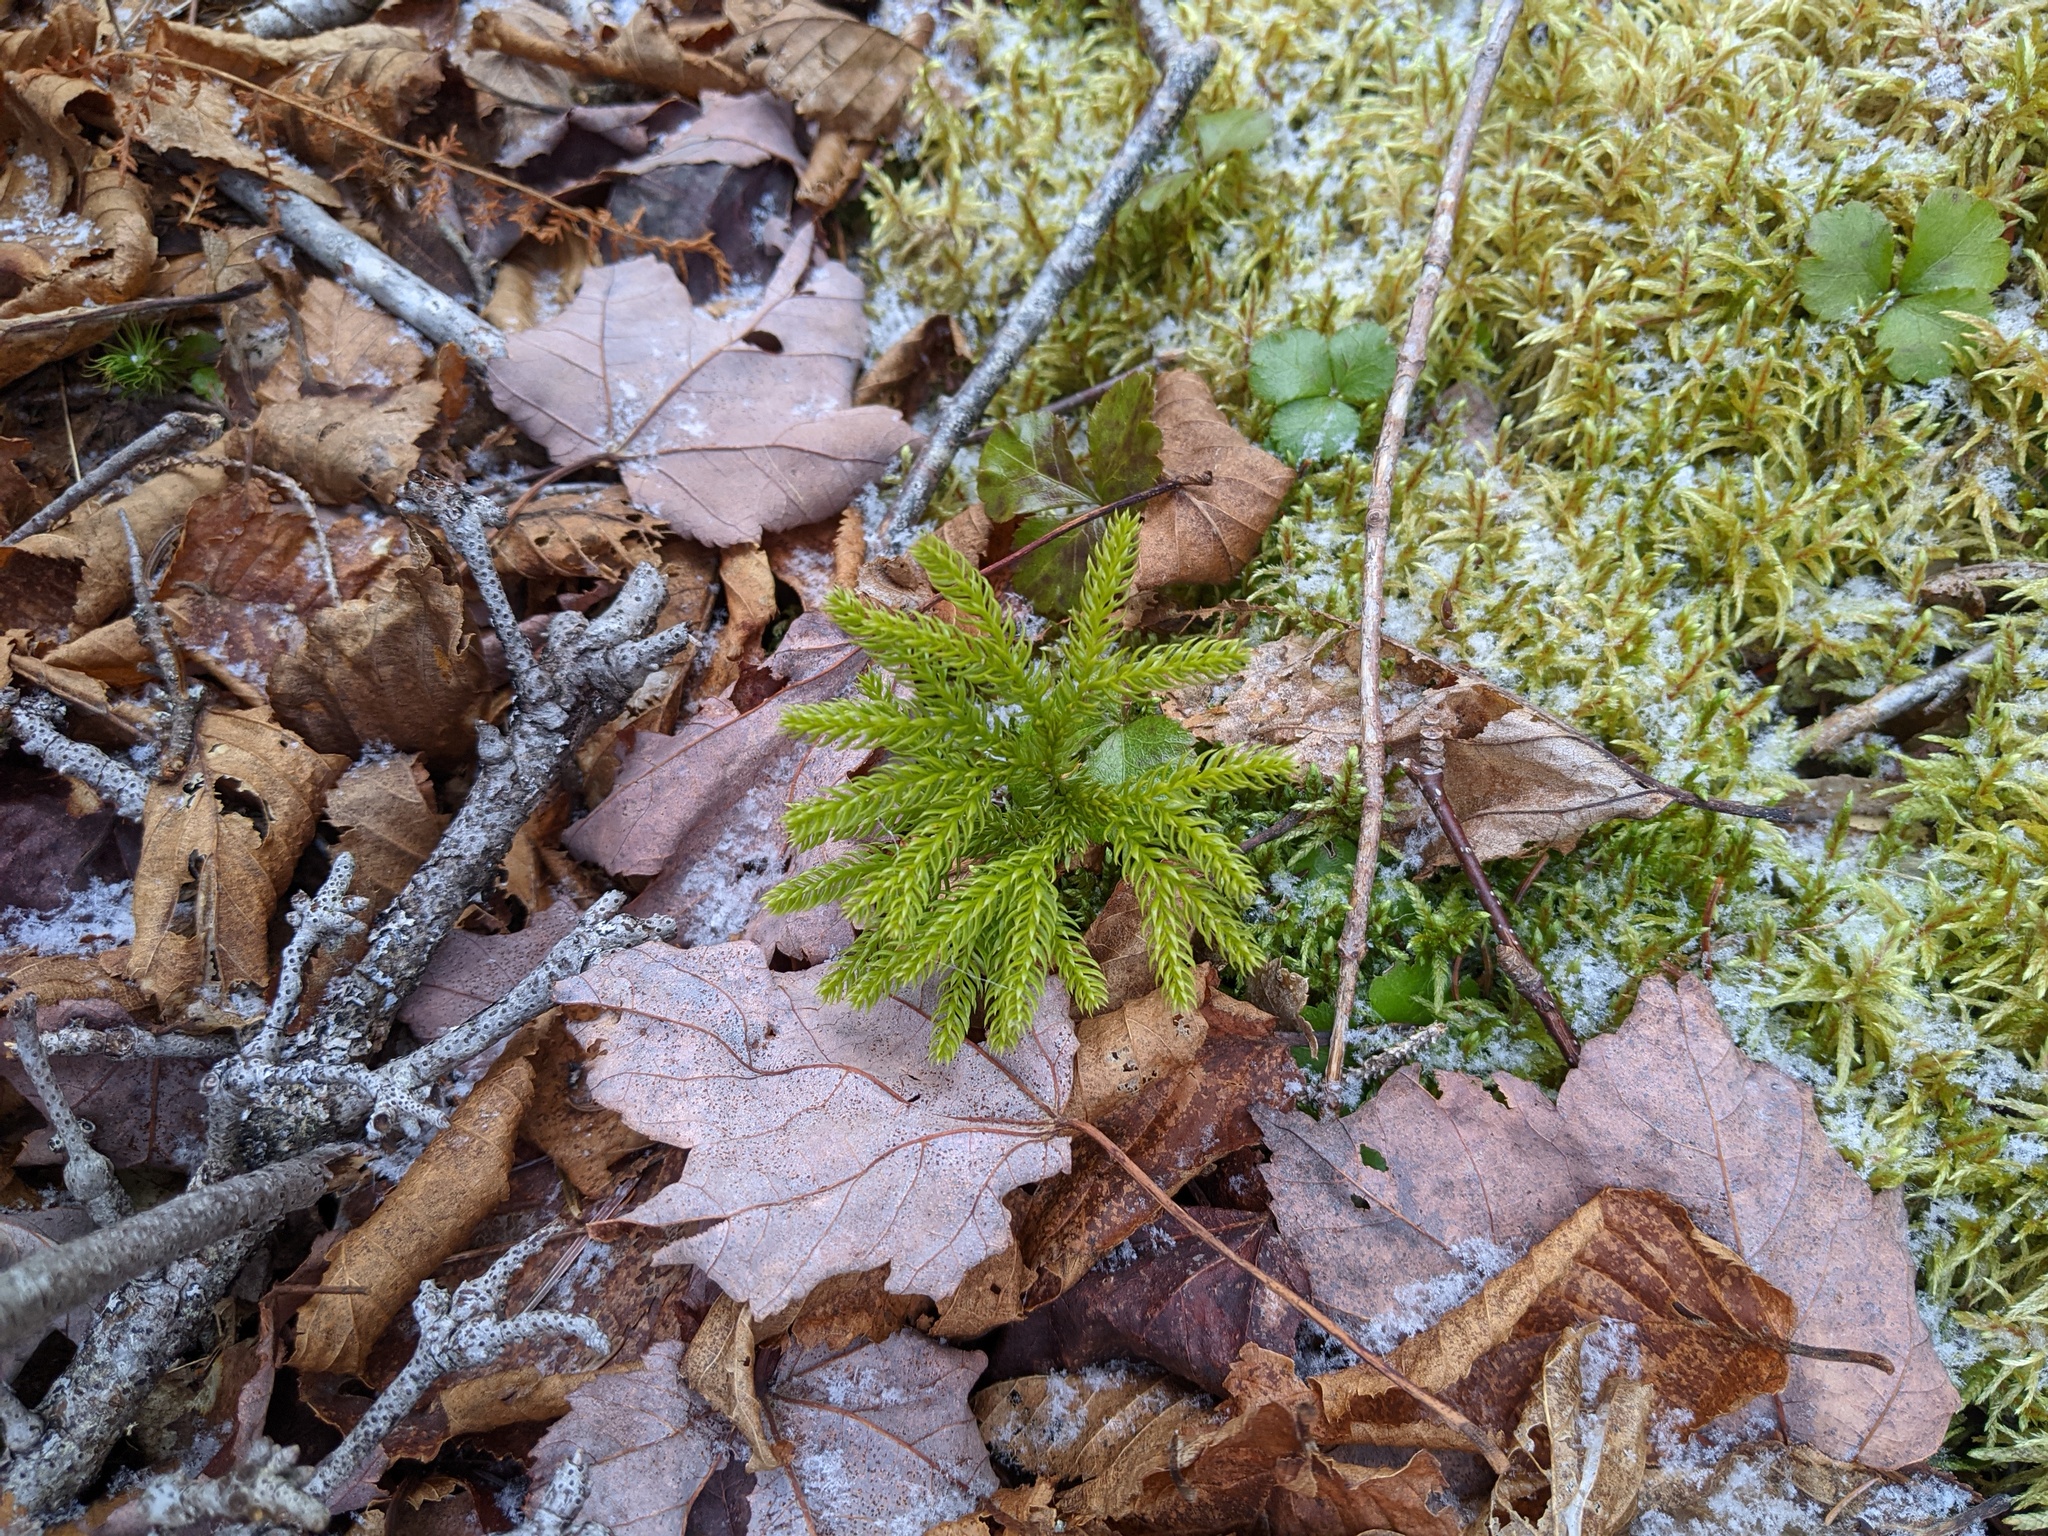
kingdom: Plantae
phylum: Tracheophyta
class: Lycopodiopsida
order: Lycopodiales
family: Lycopodiaceae
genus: Dendrolycopodium
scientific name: Dendrolycopodium dendroideum
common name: Northern tree-clubmoss
